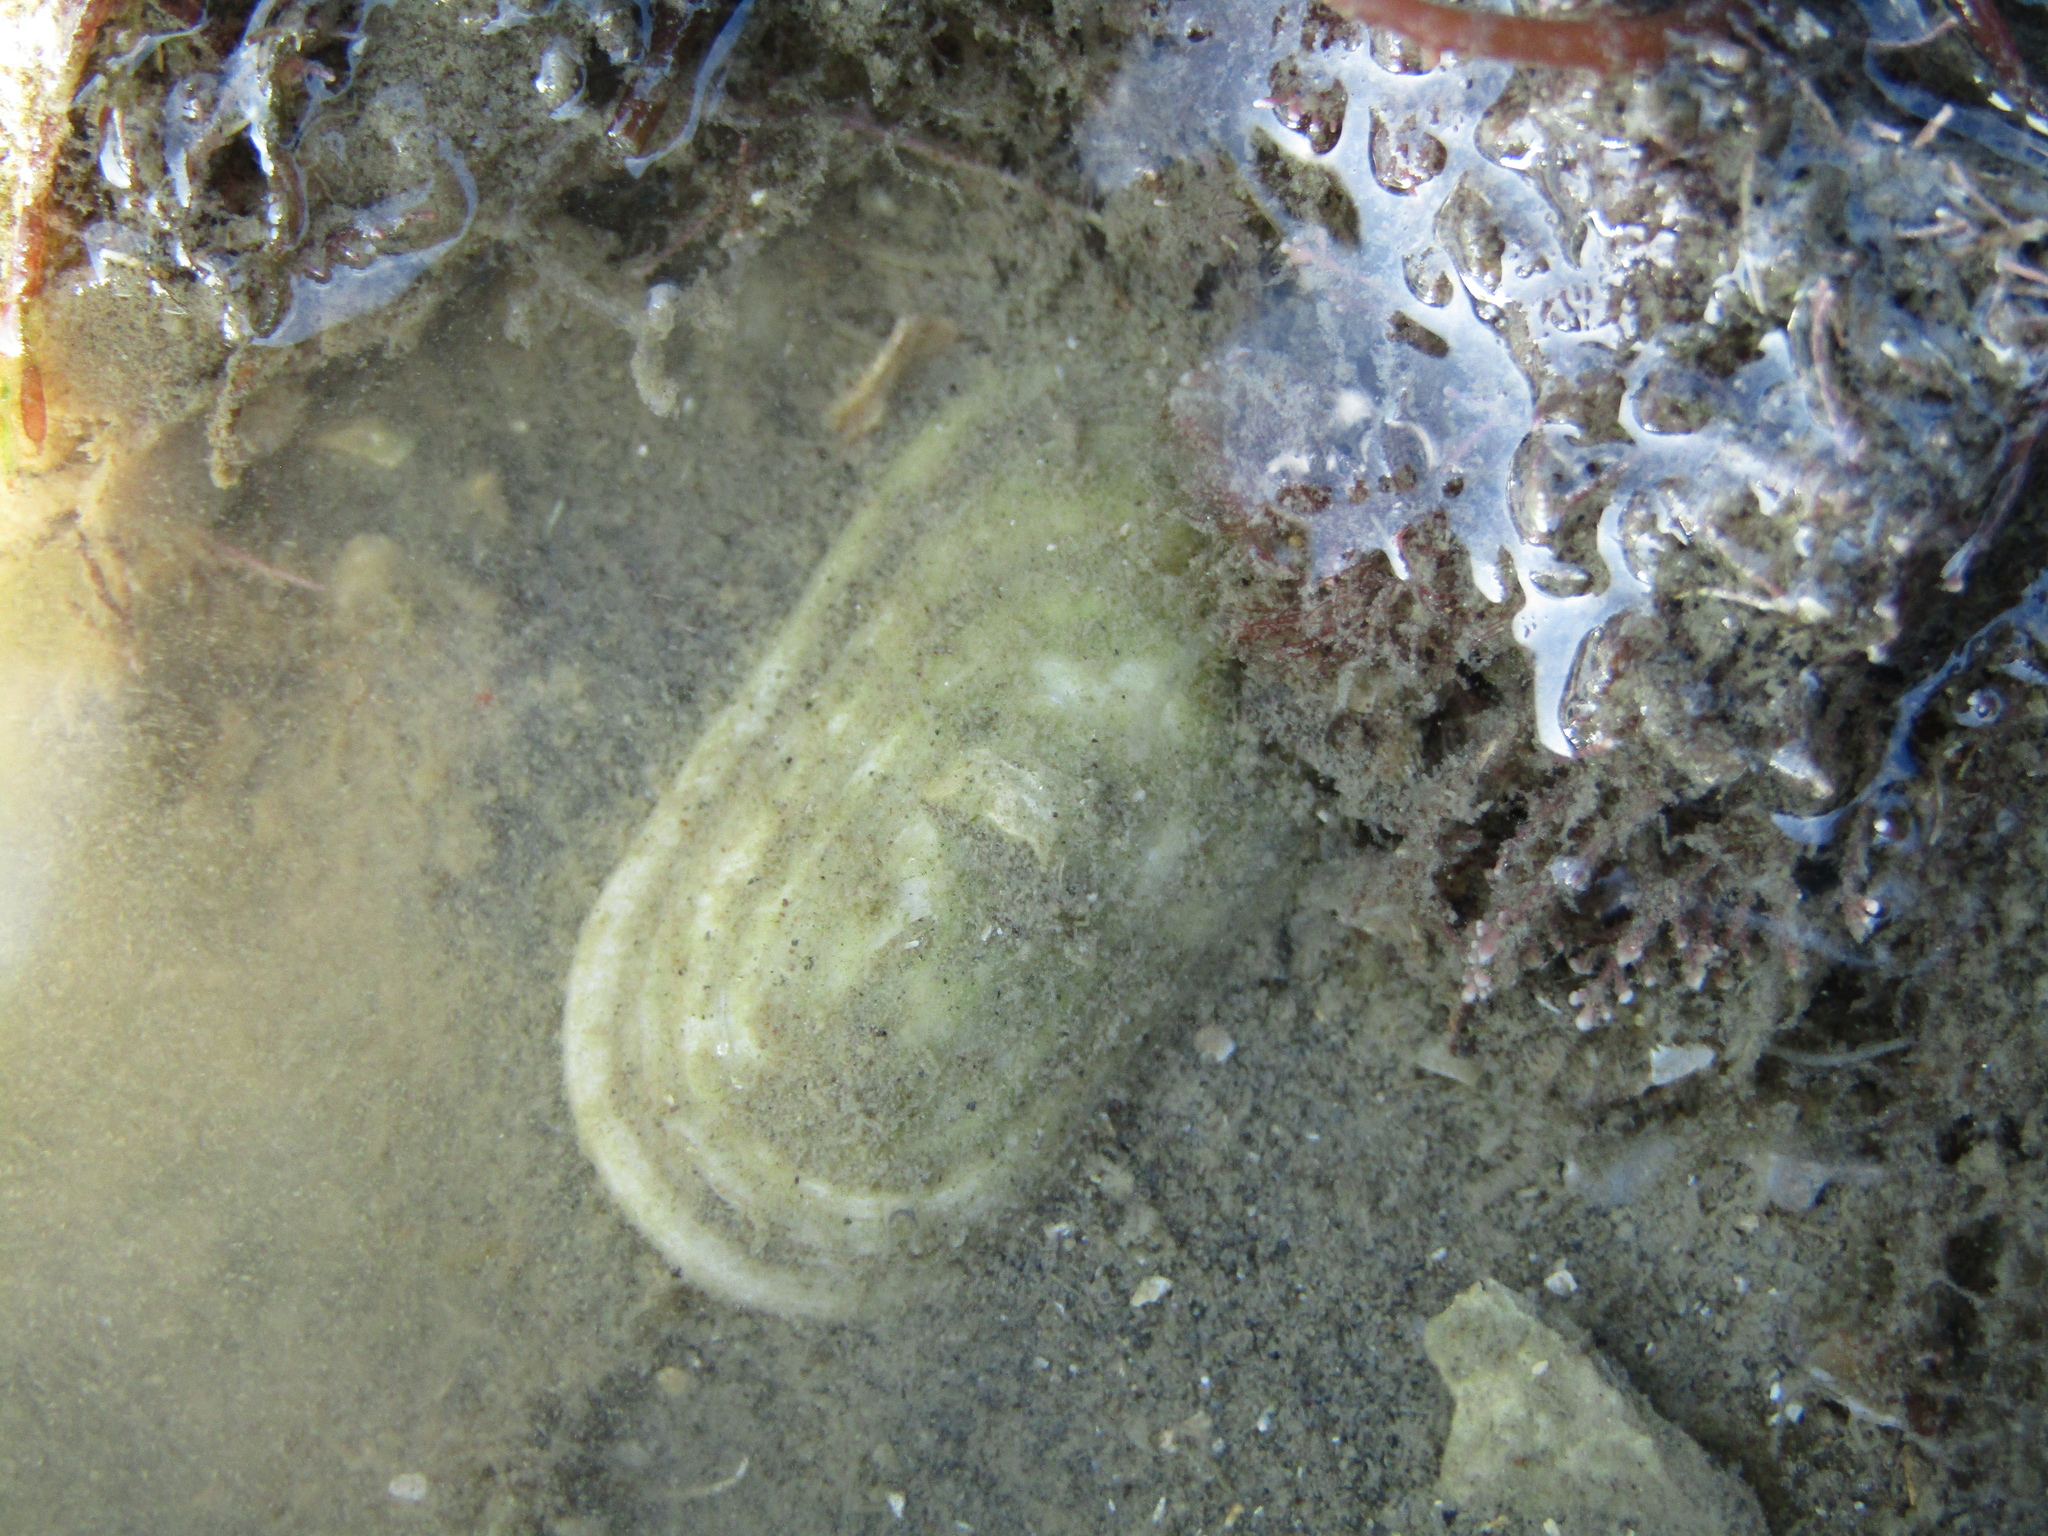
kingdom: Animalia
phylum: Mollusca
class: Gastropoda
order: Lepetellida
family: Fissurellidae
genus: Scutus
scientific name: Scutus breviculus
